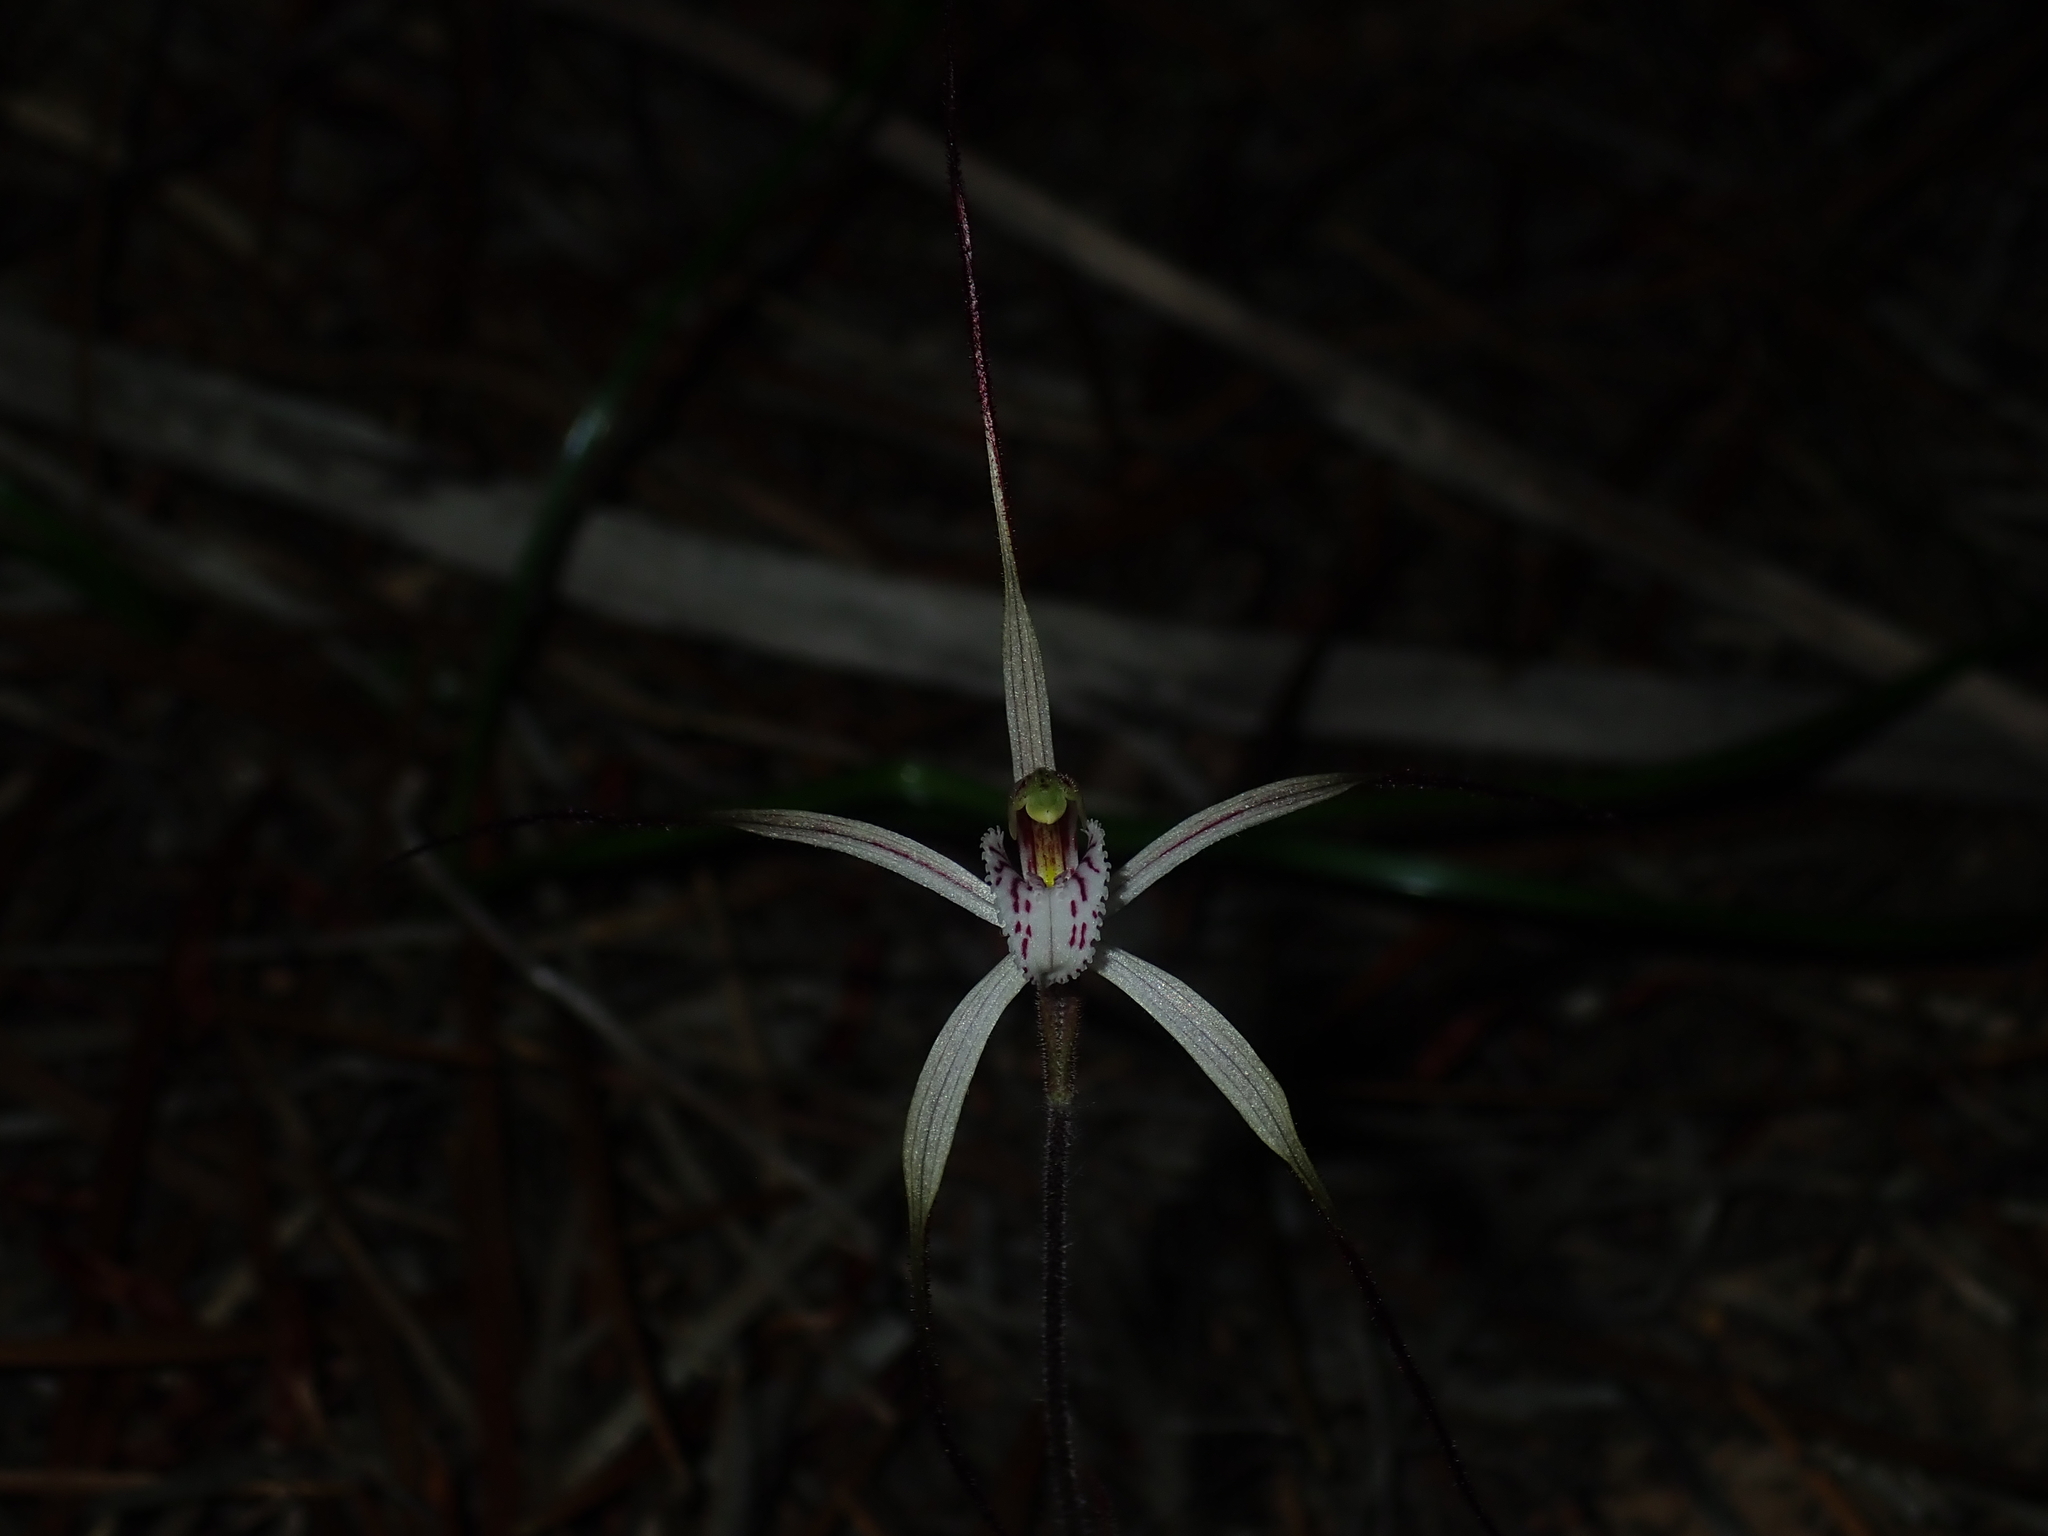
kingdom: Plantae
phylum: Tracheophyta
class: Liliopsida
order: Asparagales
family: Orchidaceae
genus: Caladenia
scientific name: Caladenia varians
